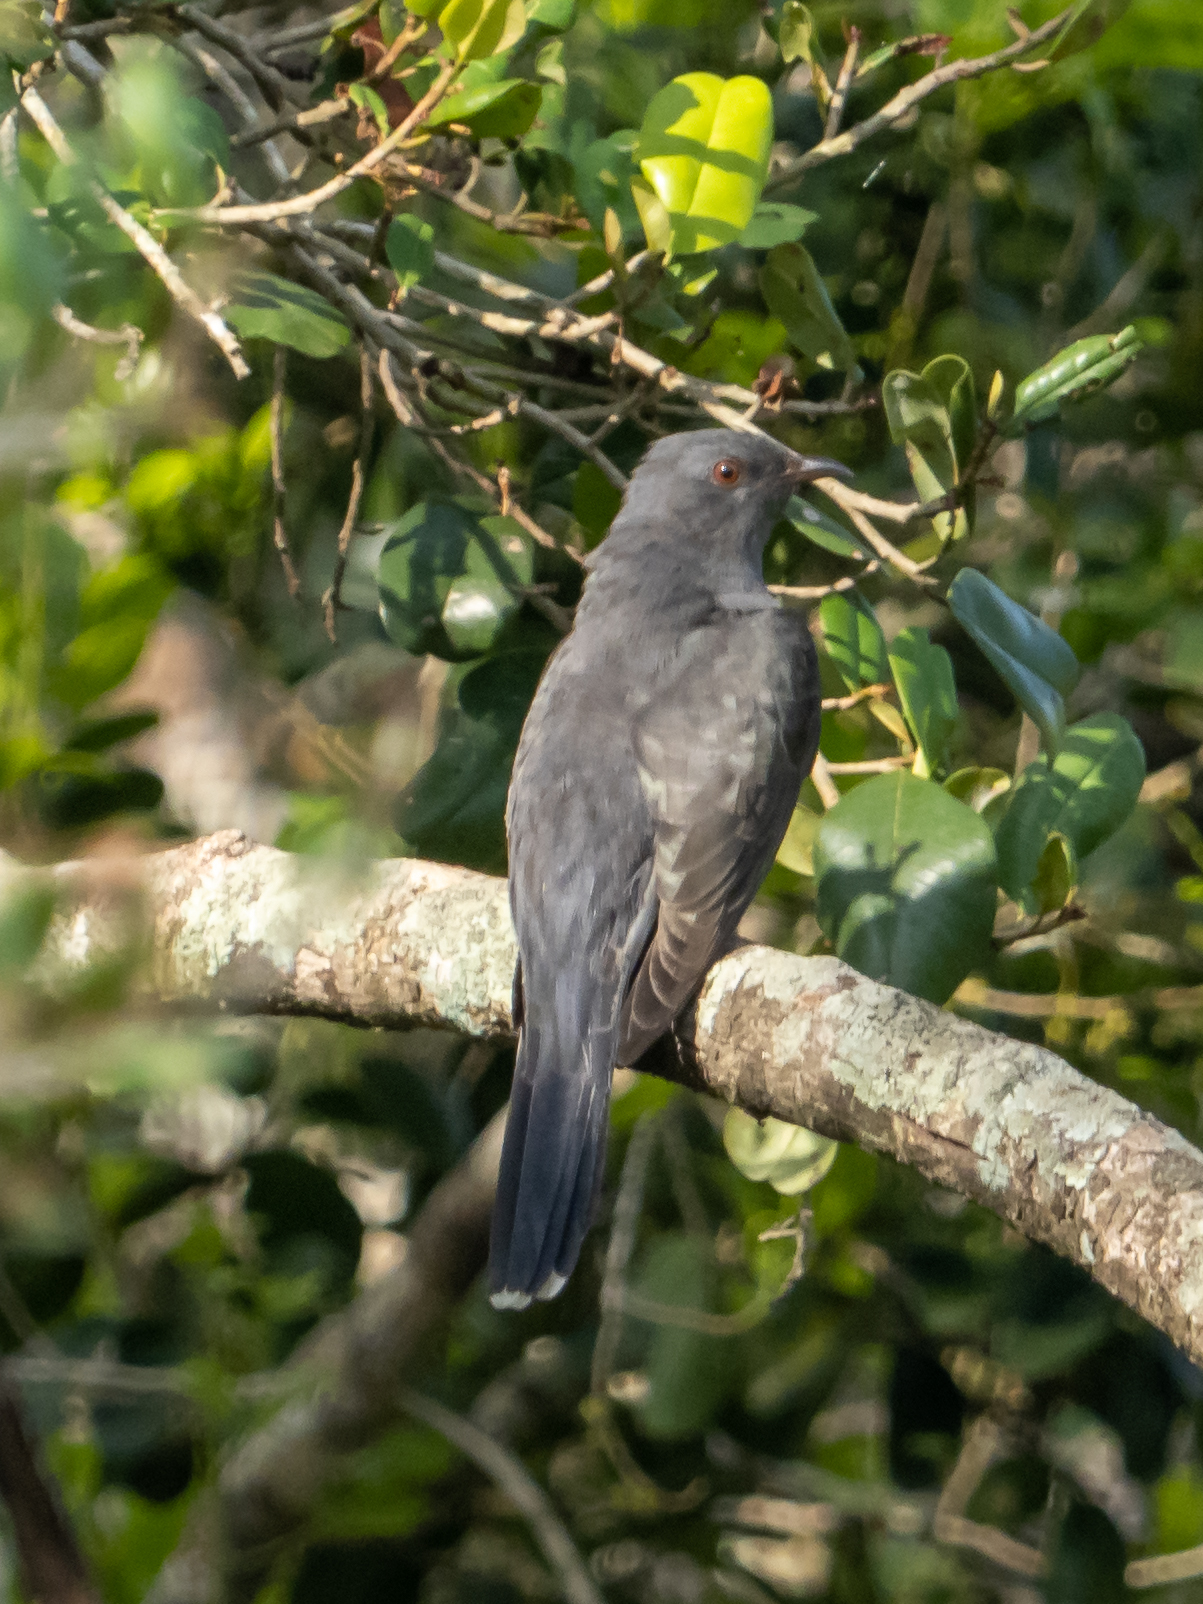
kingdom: Animalia
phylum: Chordata
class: Aves
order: Cuculiformes
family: Cuculidae
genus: Cacomantis
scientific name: Cacomantis passerinus
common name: Grey-bellied cuckoo
